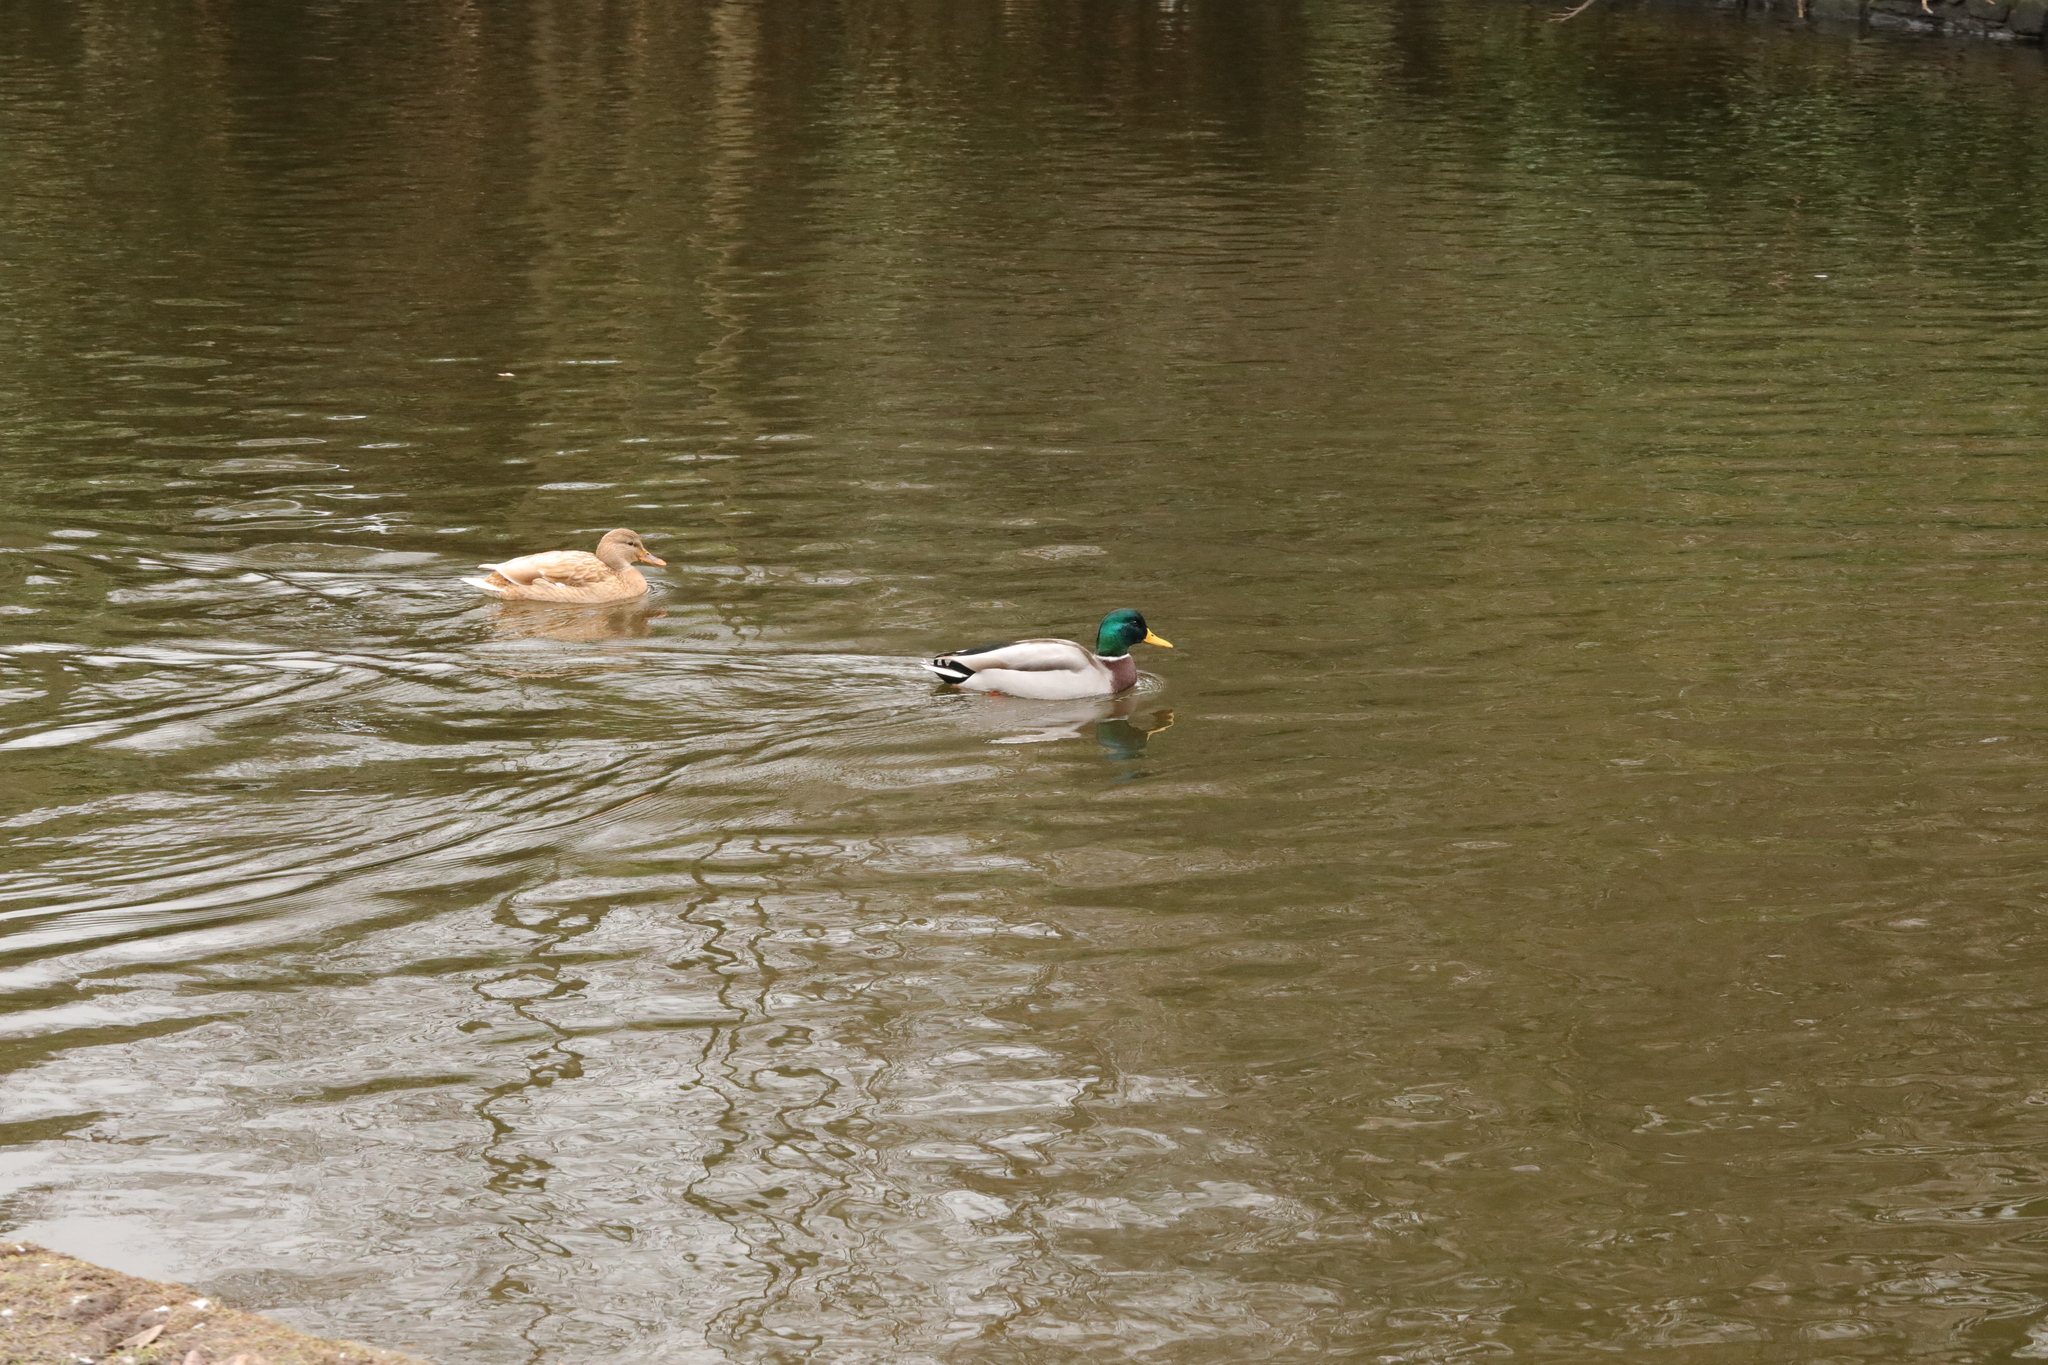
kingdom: Animalia
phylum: Chordata
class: Aves
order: Anseriformes
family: Anatidae
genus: Anas
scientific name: Anas platyrhynchos
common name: Mallard
